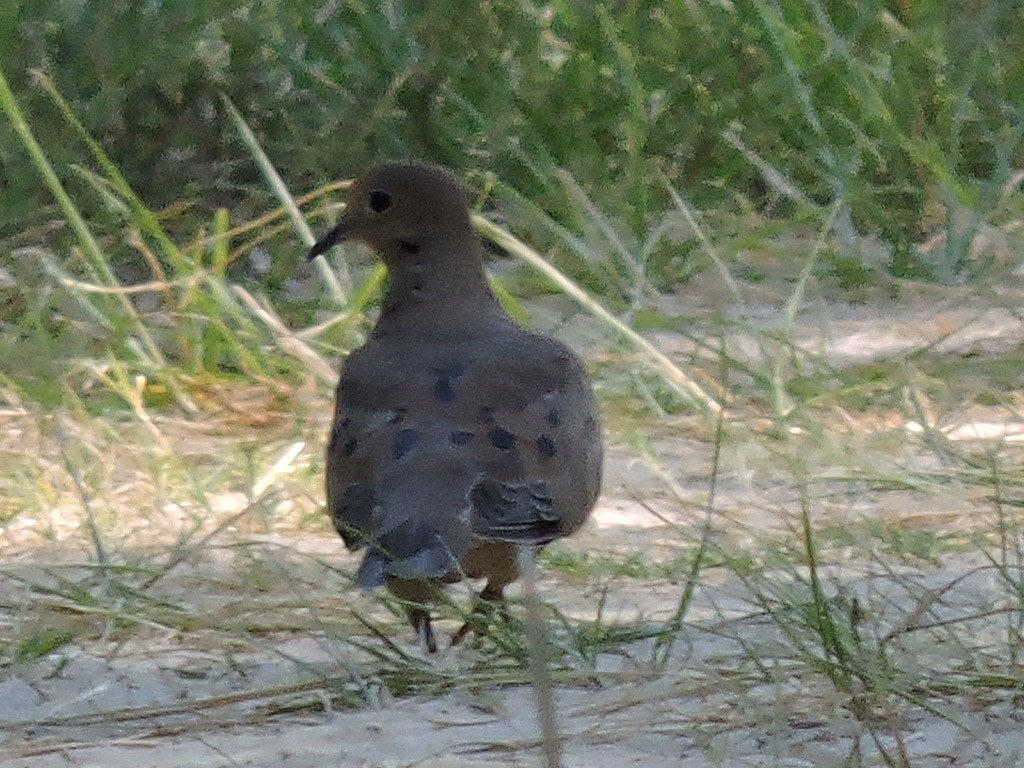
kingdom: Animalia
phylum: Chordata
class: Aves
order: Columbiformes
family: Columbidae
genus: Zenaida
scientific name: Zenaida macroura
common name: Mourning dove
